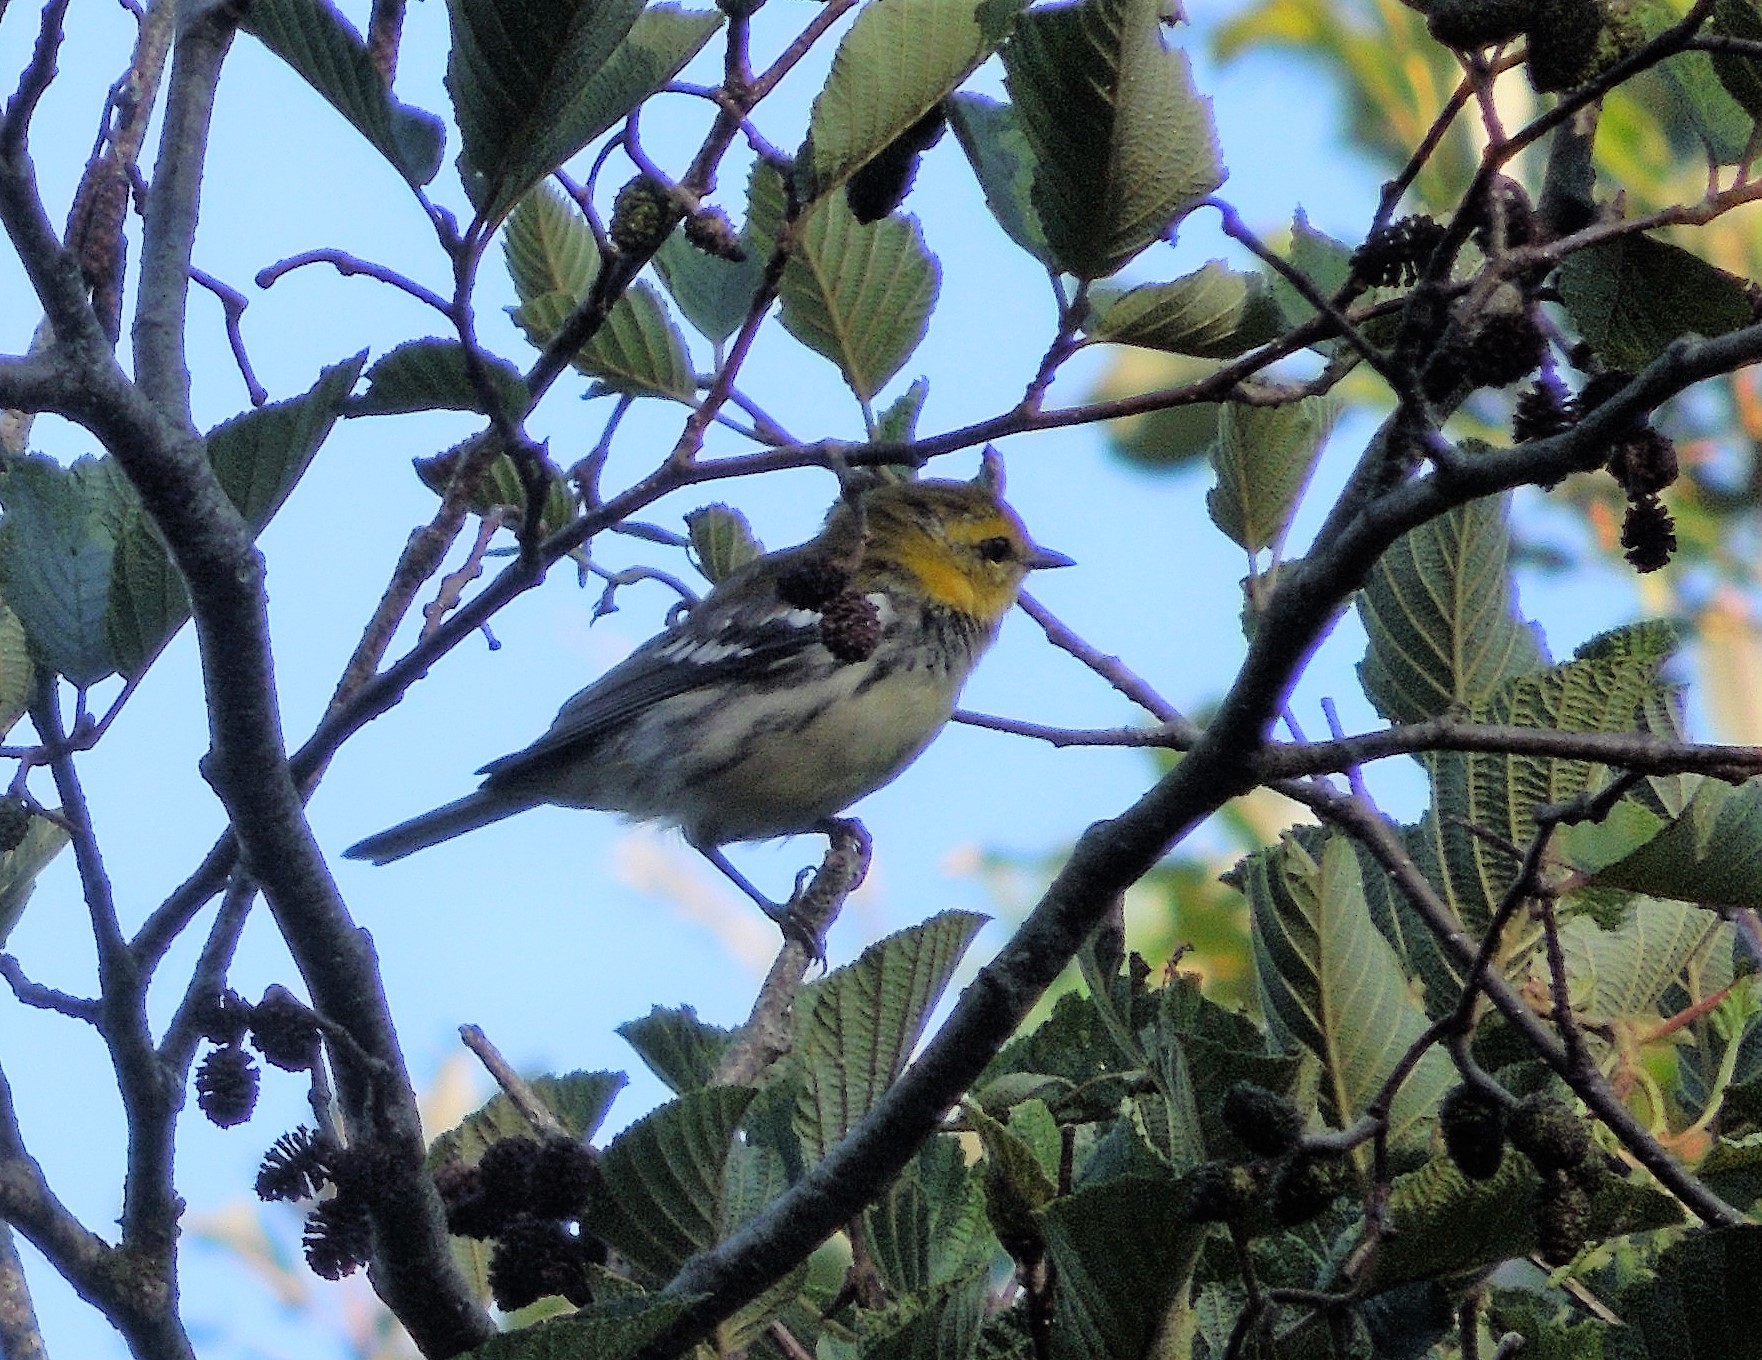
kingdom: Animalia
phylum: Chordata
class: Aves
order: Passeriformes
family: Parulidae
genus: Setophaga
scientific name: Setophaga virens
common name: Black-throated green warbler
